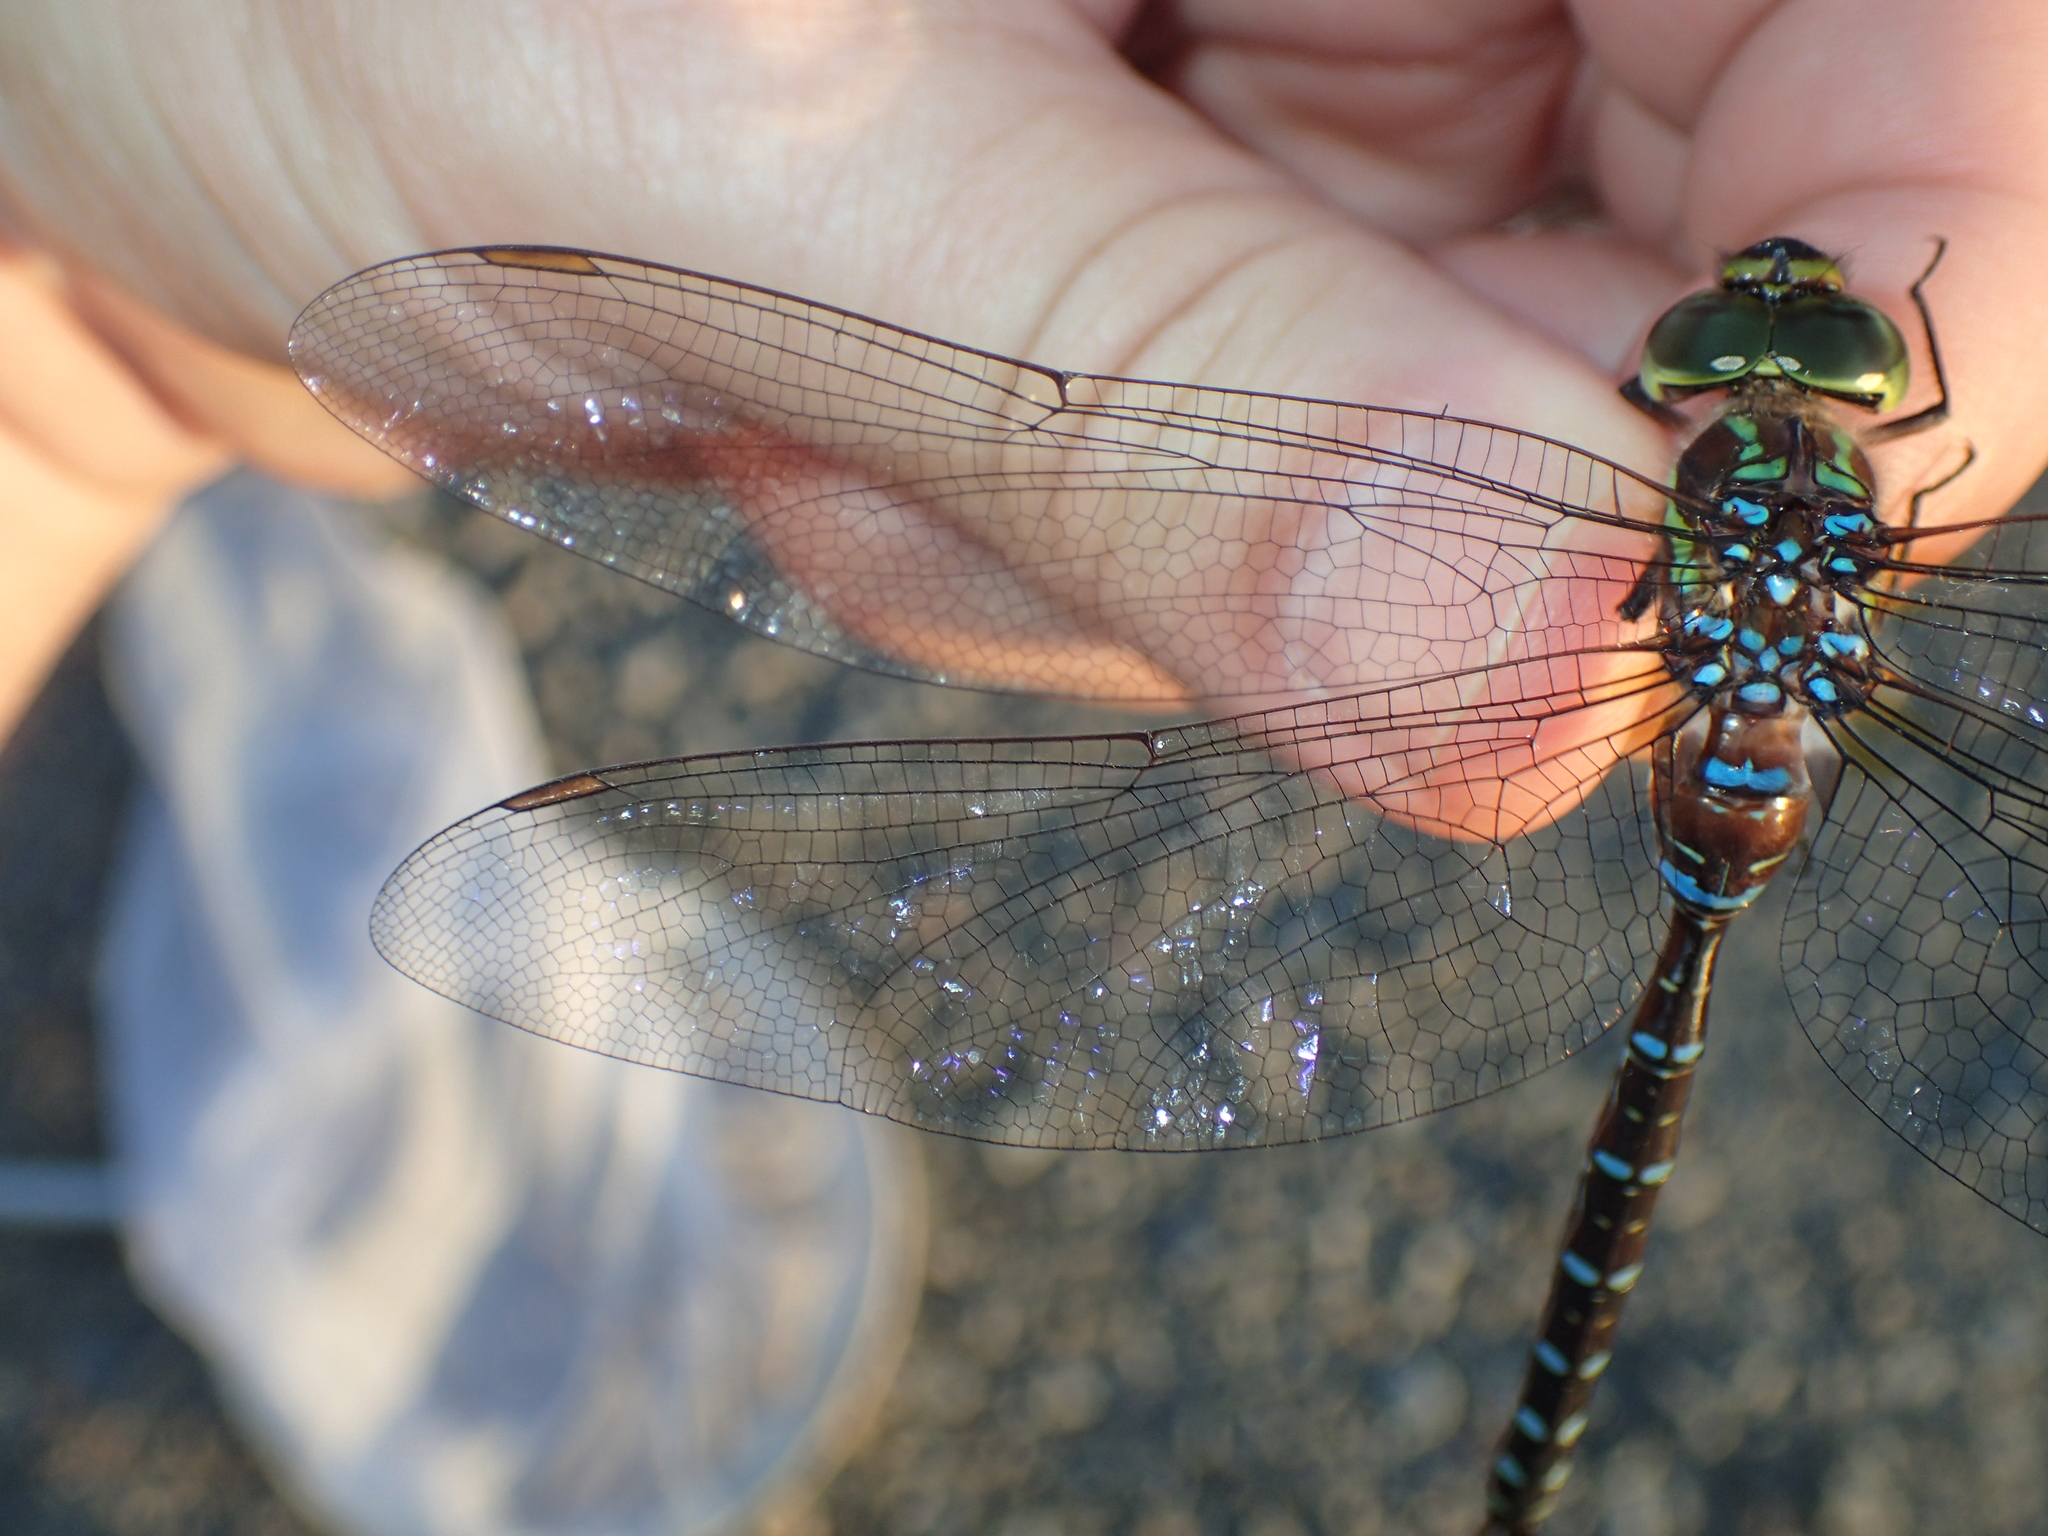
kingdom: Animalia
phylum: Arthropoda
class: Insecta
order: Odonata
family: Aeshnidae
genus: Aeshna
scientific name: Aeshna tuberculifera
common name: Aeschne à tubercules
